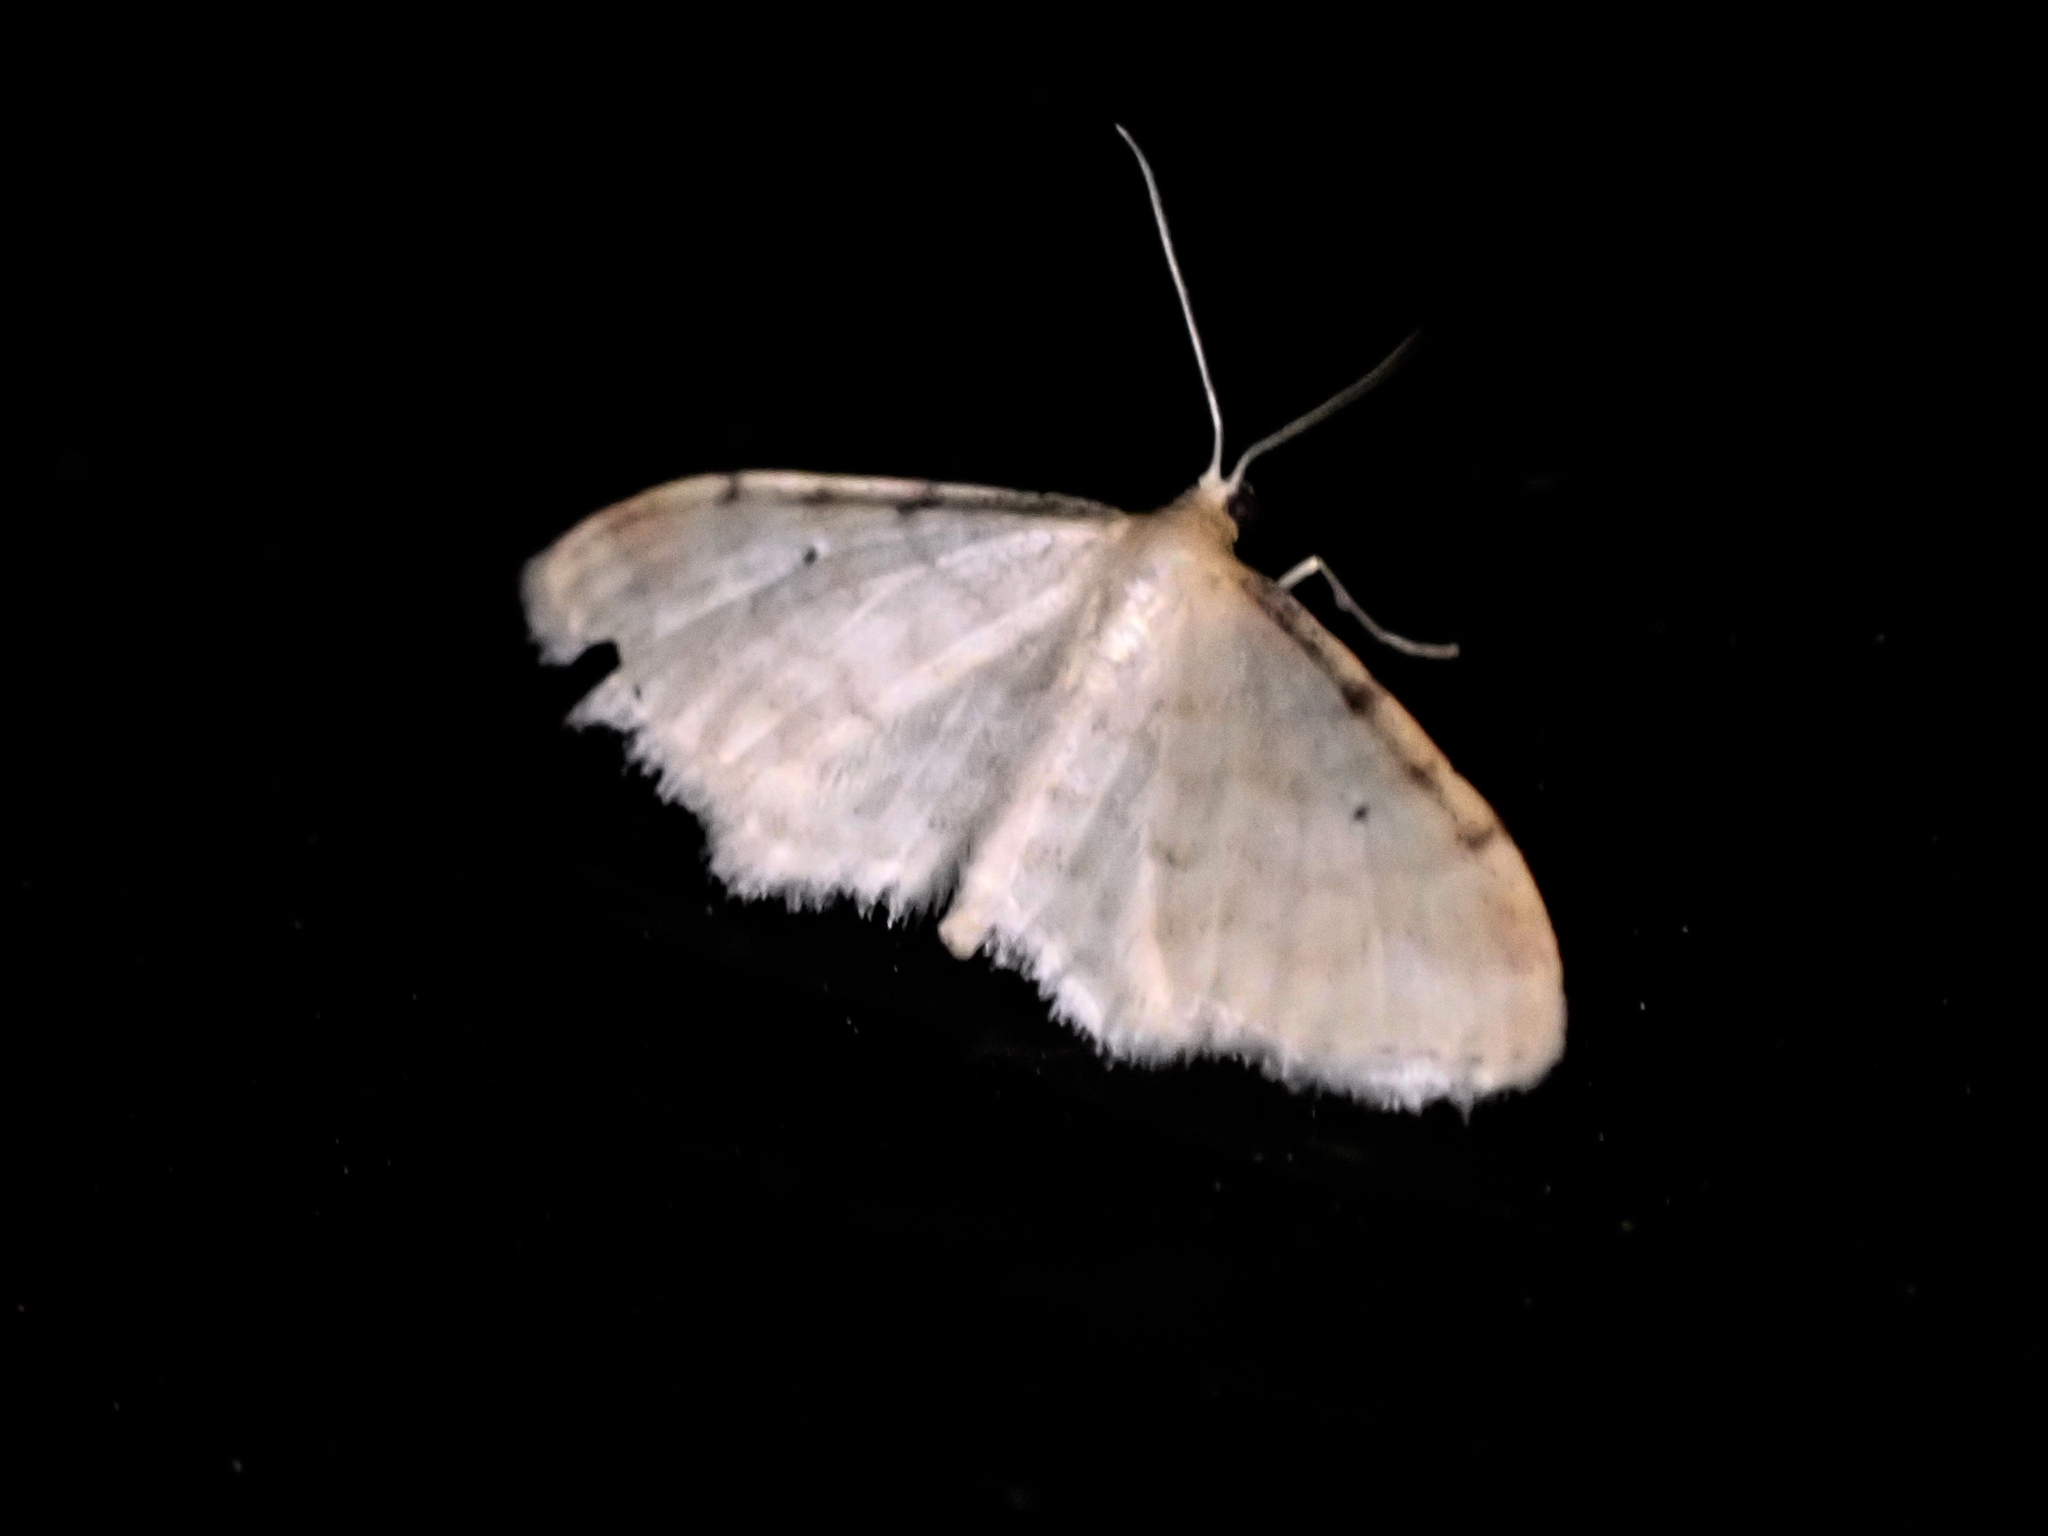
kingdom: Animalia
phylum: Arthropoda
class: Insecta
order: Lepidoptera
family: Geometridae
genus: Idaea
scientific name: Idaea fuscovenosa
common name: Dwarf cream wave
